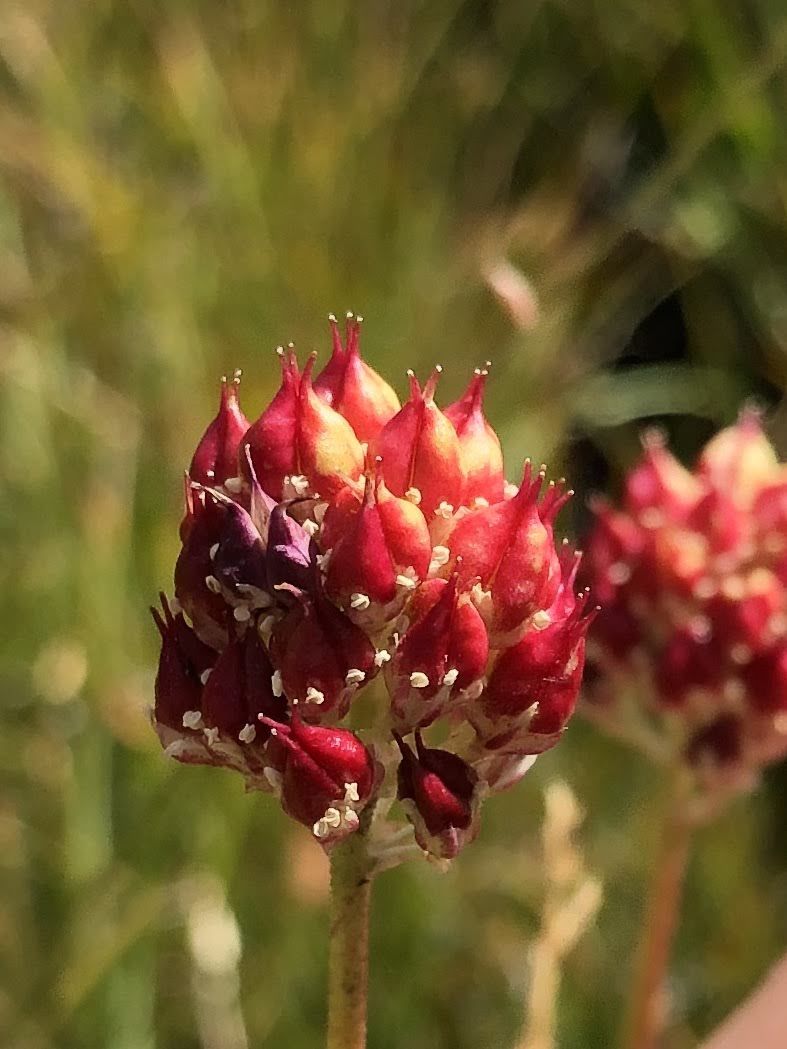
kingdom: Plantae
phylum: Tracheophyta
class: Liliopsida
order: Alismatales
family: Tofieldiaceae
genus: Triantha
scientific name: Triantha occidentalis
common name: Western false asphodel
